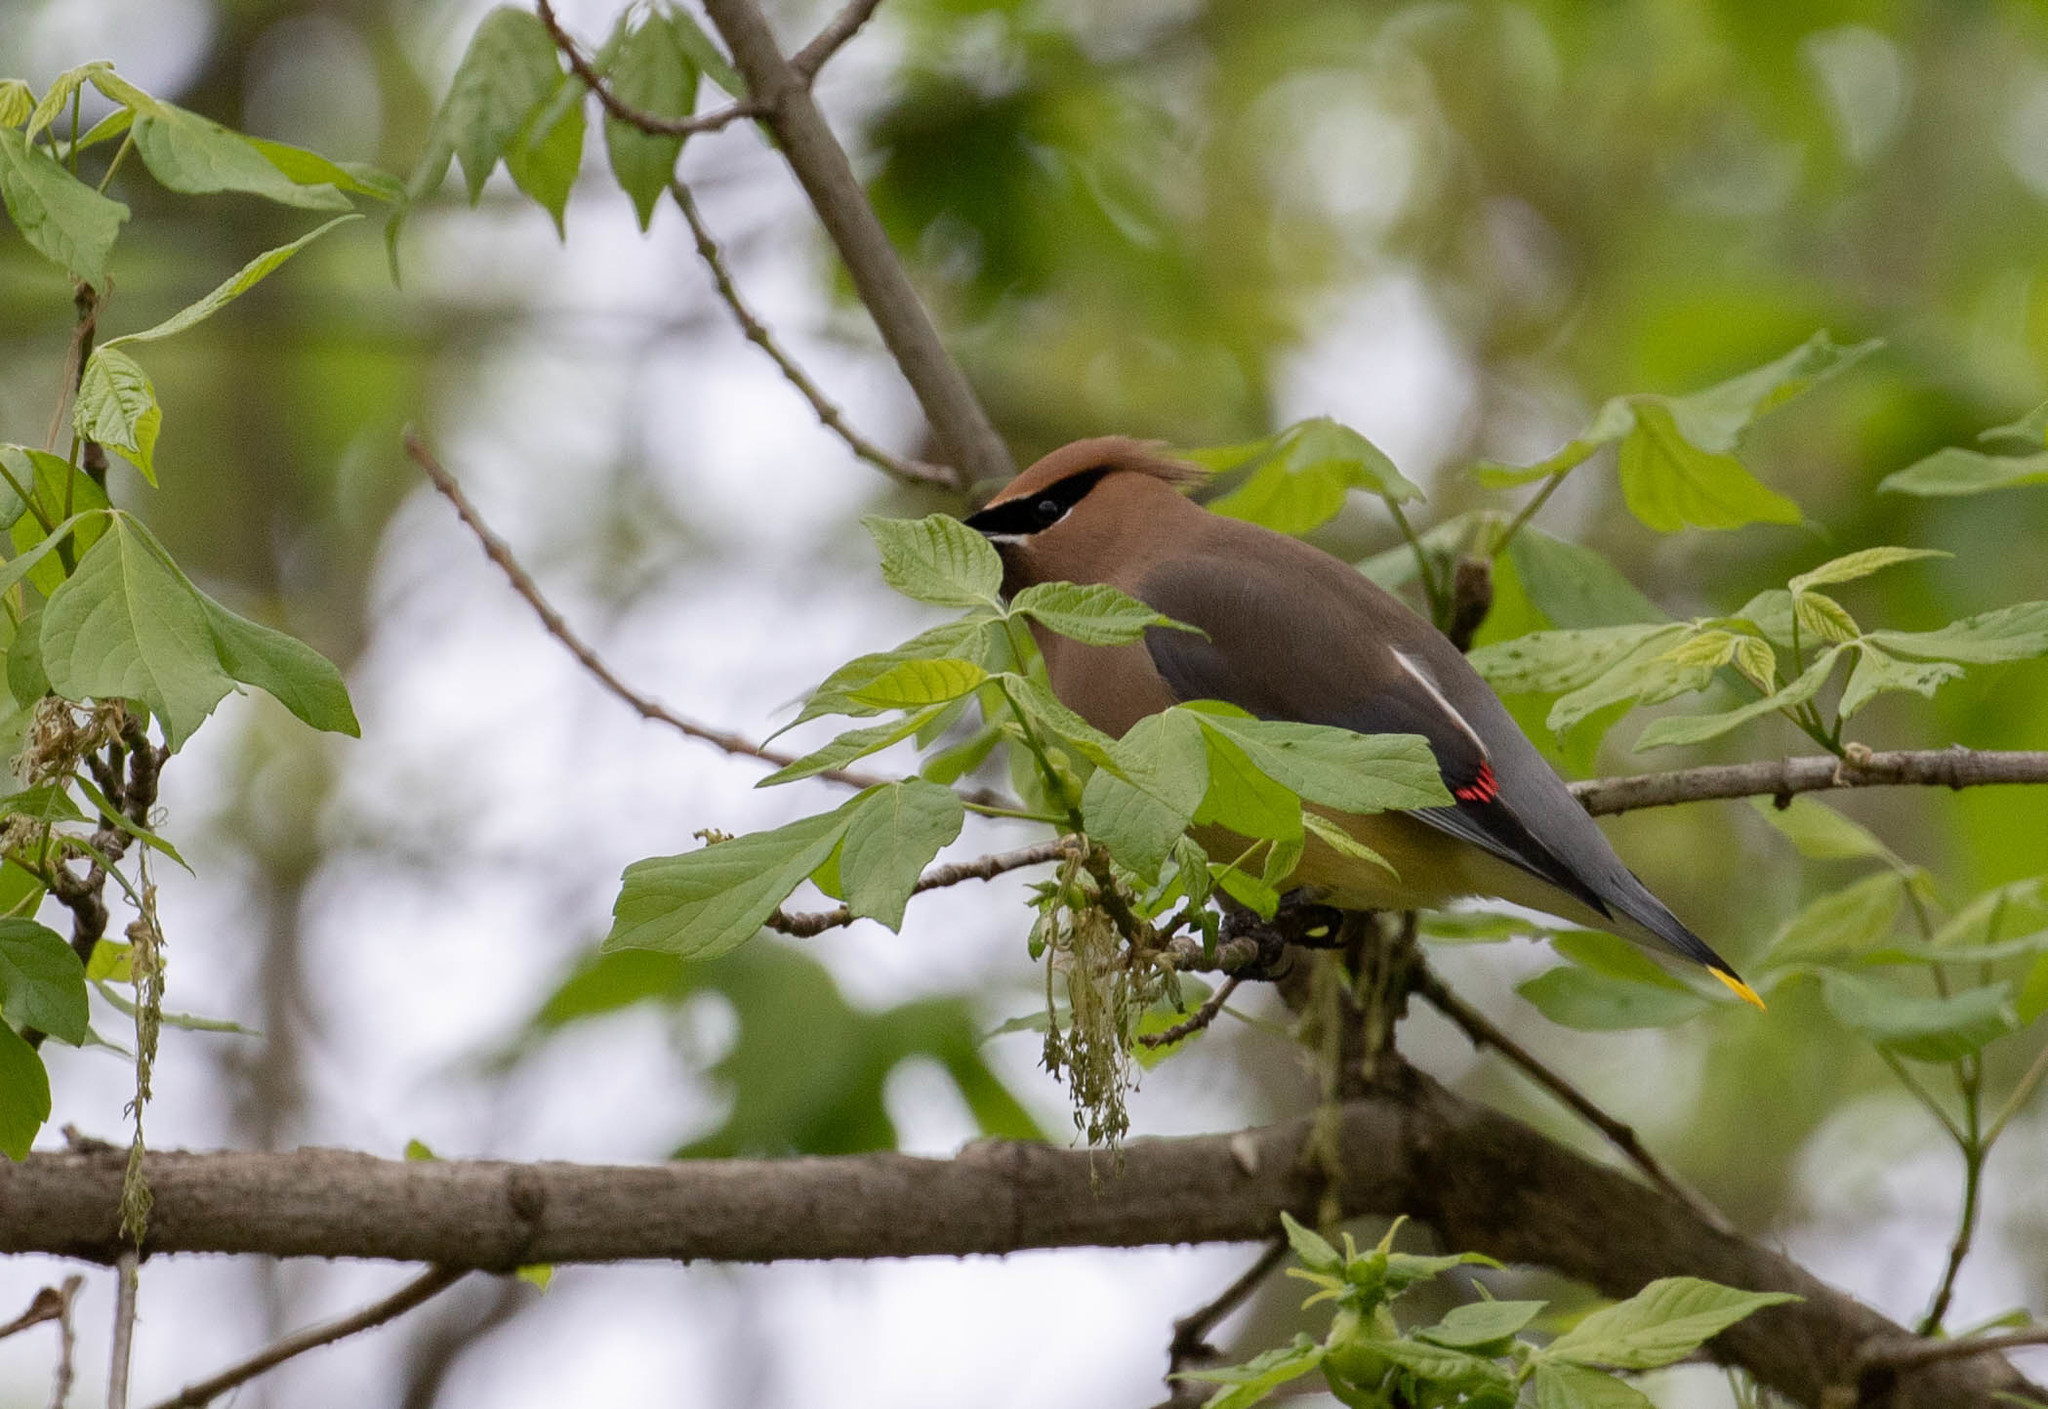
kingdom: Animalia
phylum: Chordata
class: Aves
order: Passeriformes
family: Bombycillidae
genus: Bombycilla
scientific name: Bombycilla cedrorum
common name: Cedar waxwing
